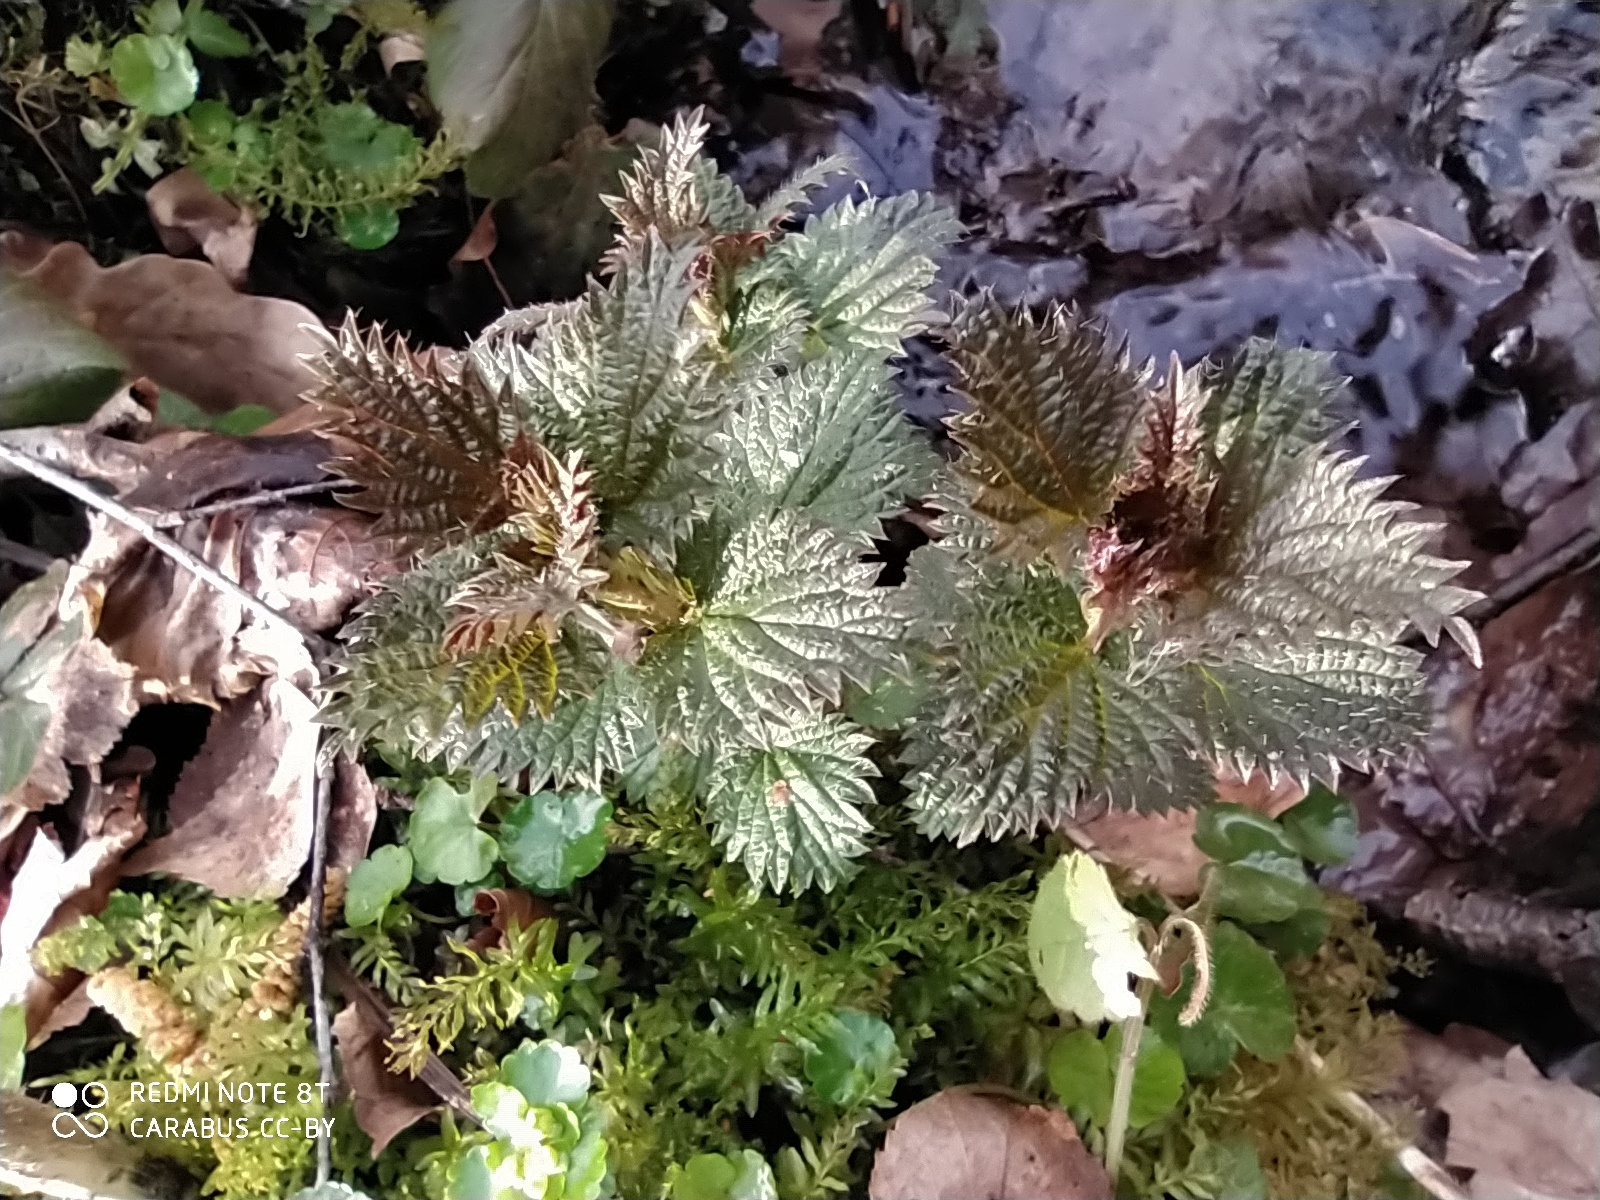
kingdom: Plantae
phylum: Tracheophyta
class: Magnoliopsida
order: Rosales
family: Urticaceae
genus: Urtica
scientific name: Urtica dioica
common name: Common nettle
